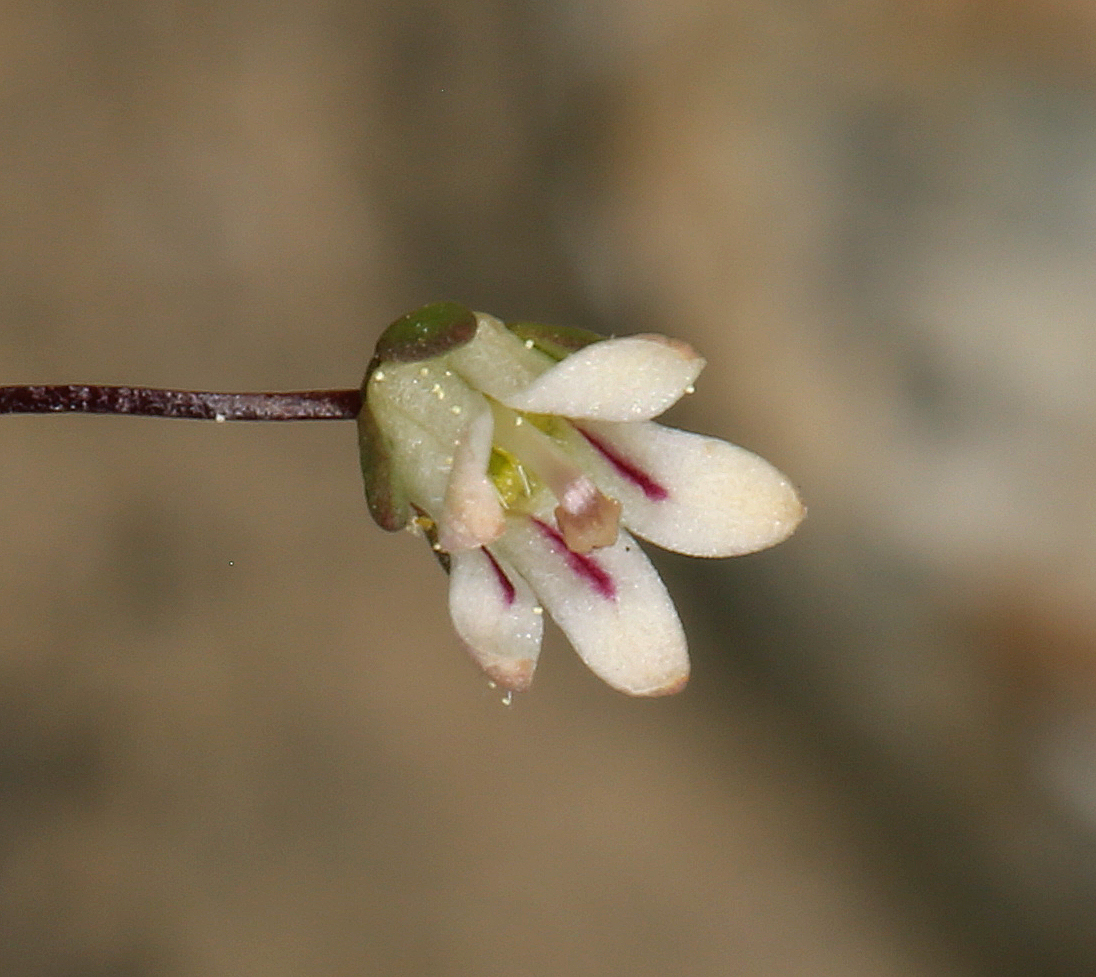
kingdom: Plantae
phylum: Tracheophyta
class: Magnoliopsida
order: Asterales
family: Campanulaceae
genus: Nemacladus
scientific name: Nemacladus inyoensis
